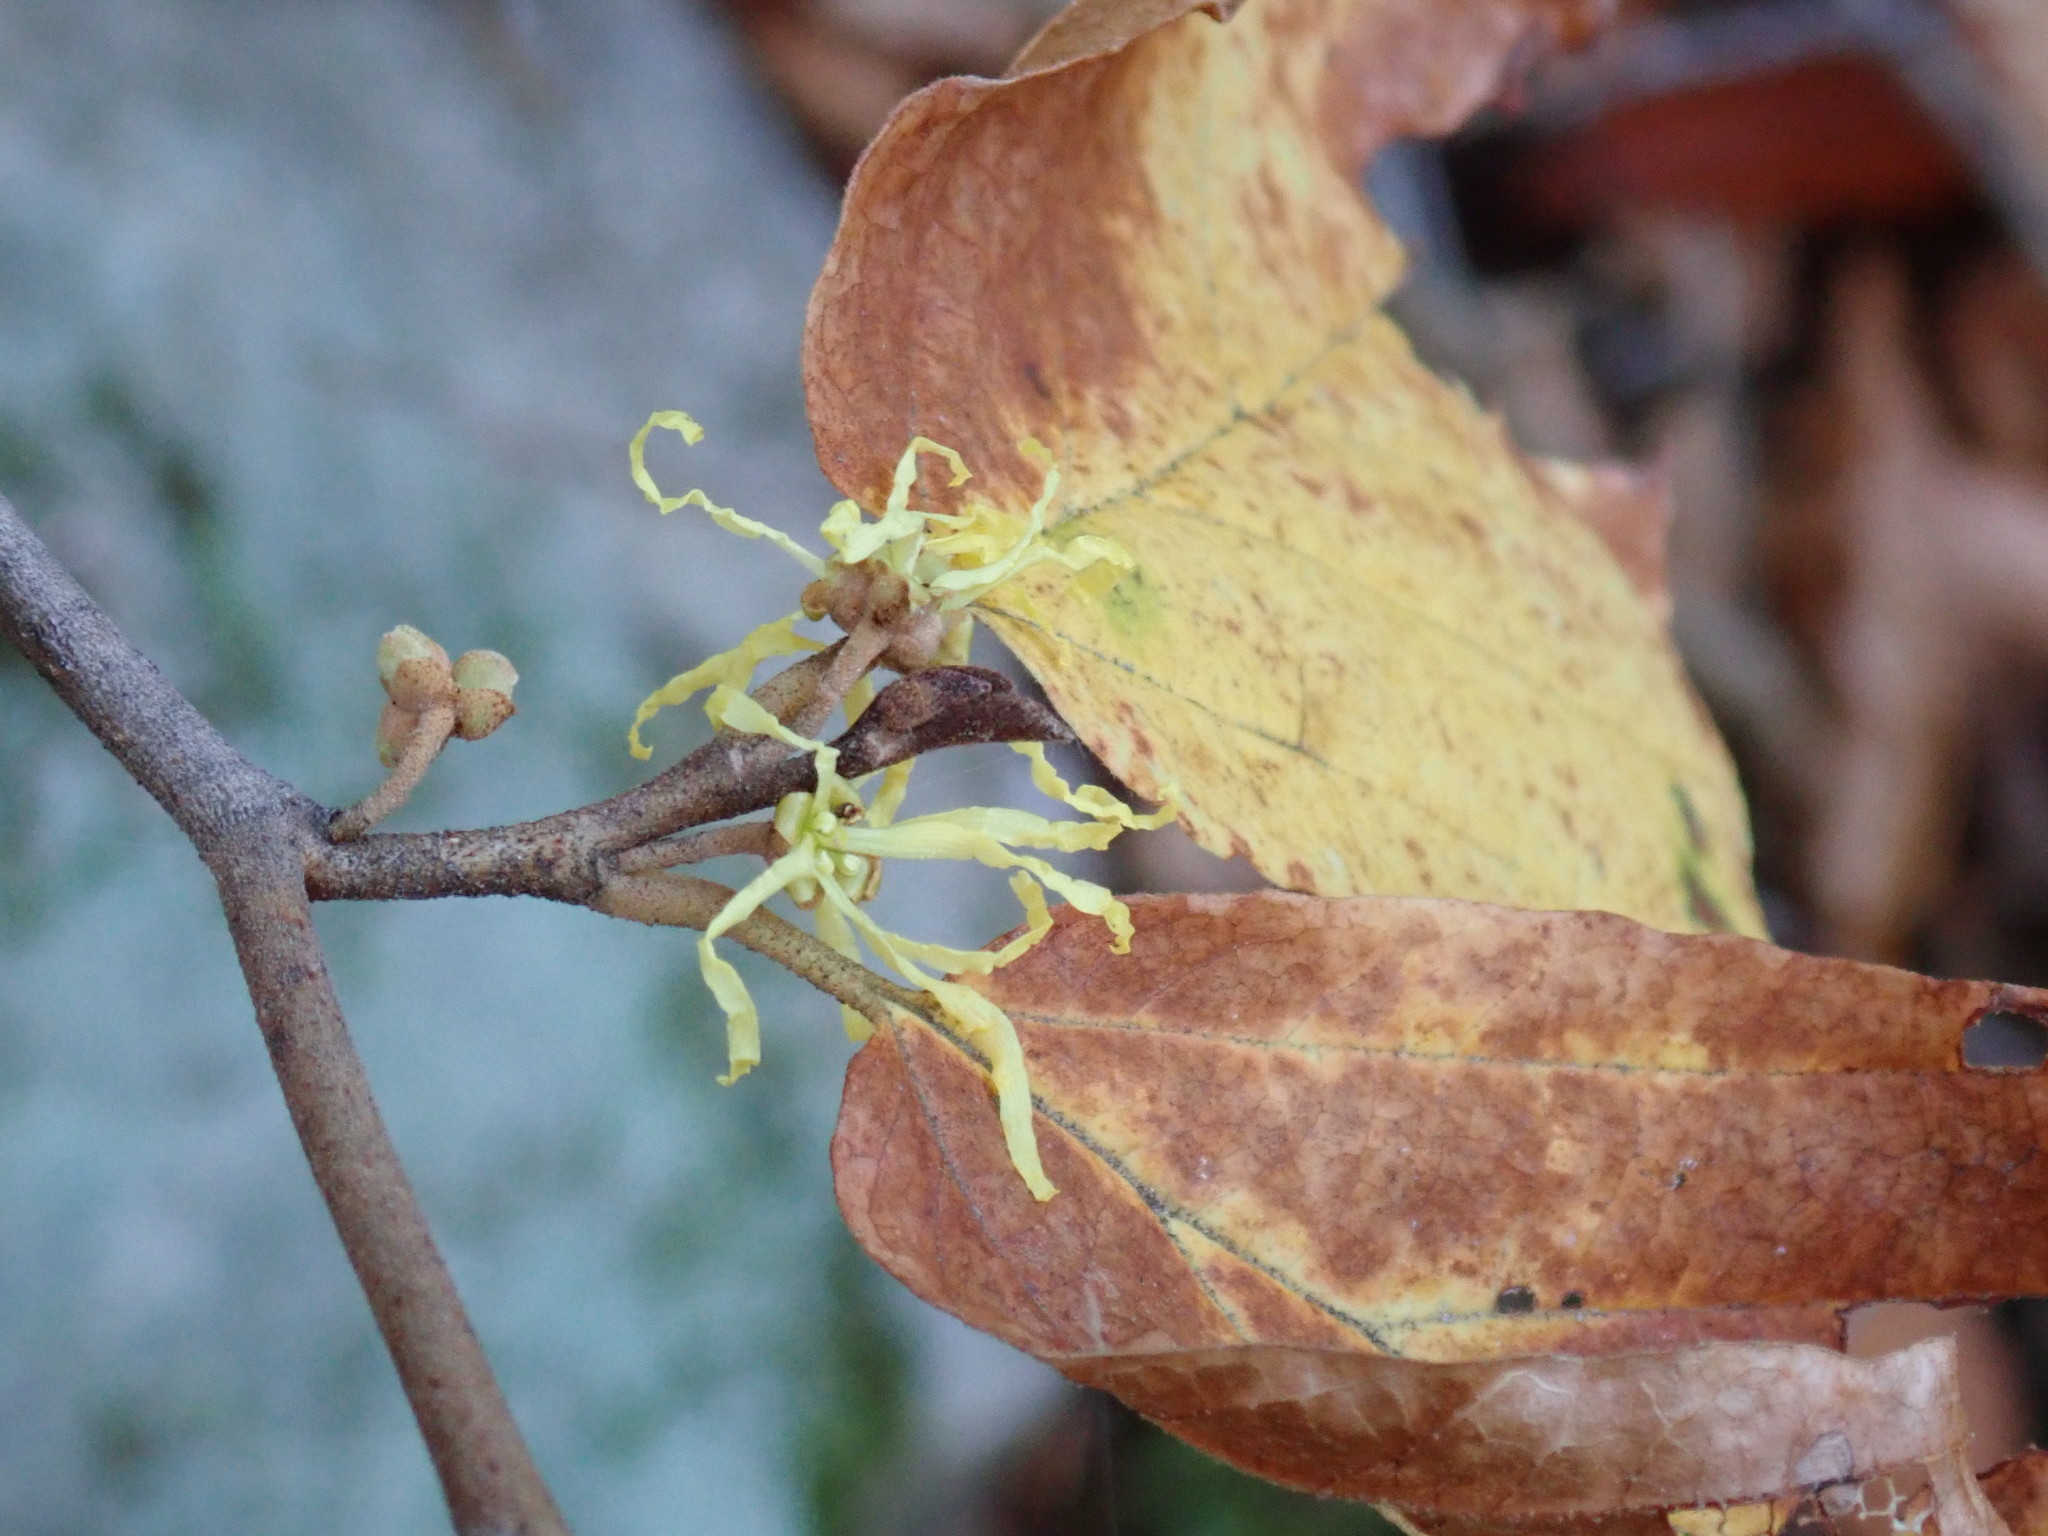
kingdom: Plantae
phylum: Tracheophyta
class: Magnoliopsida
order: Saxifragales
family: Hamamelidaceae
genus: Hamamelis
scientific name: Hamamelis virginiana
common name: Witch-hazel
